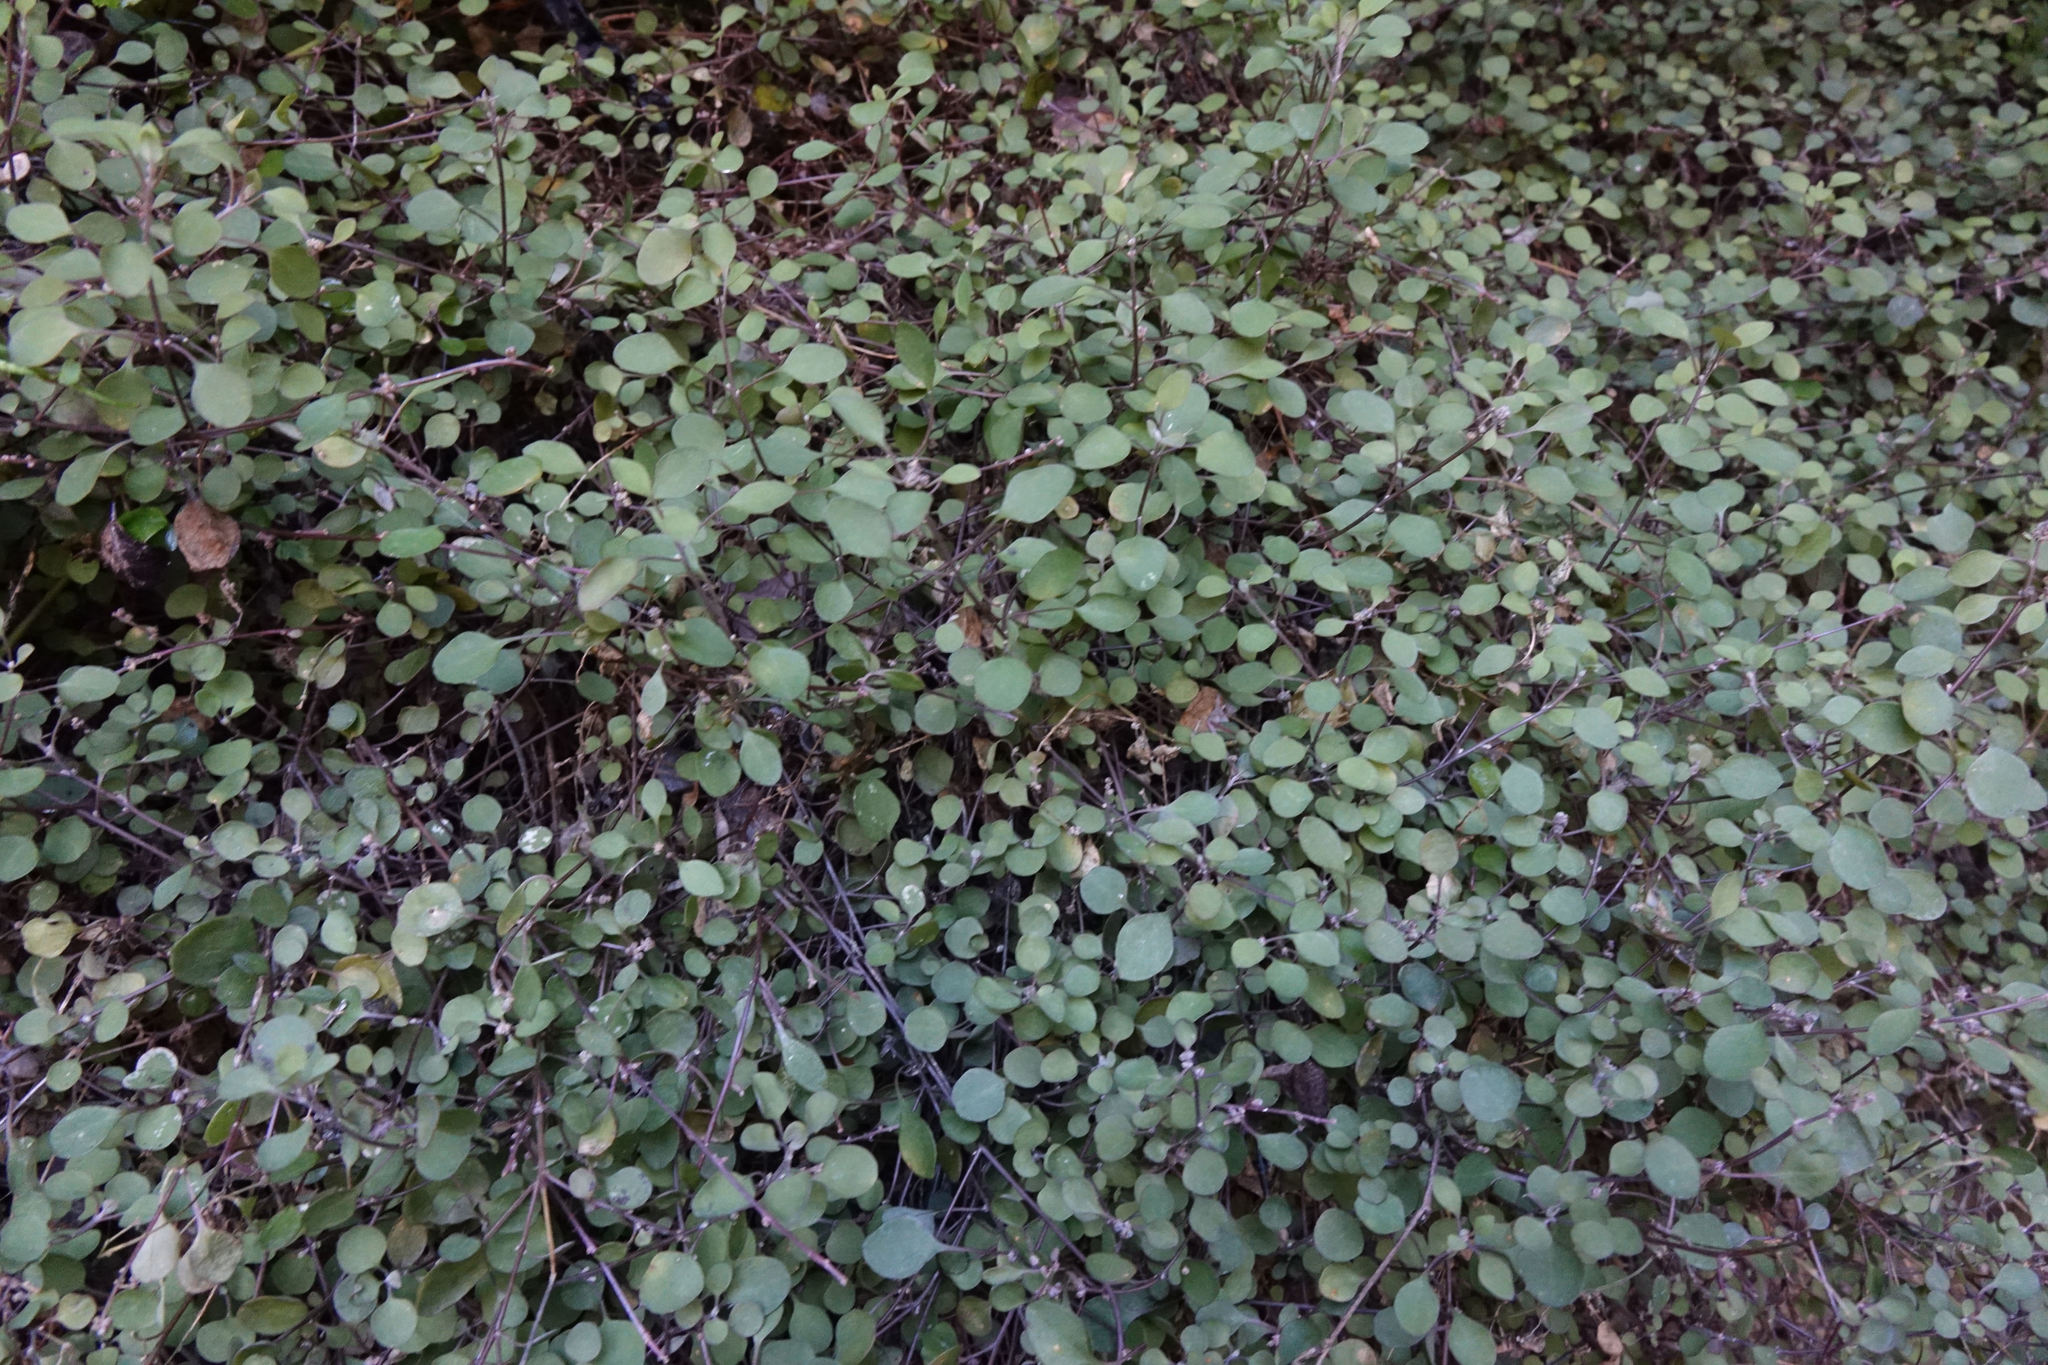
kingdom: Plantae
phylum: Tracheophyta
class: Magnoliopsida
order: Caryophyllales
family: Amaranthaceae
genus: Chenopodium
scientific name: Chenopodium allanii
